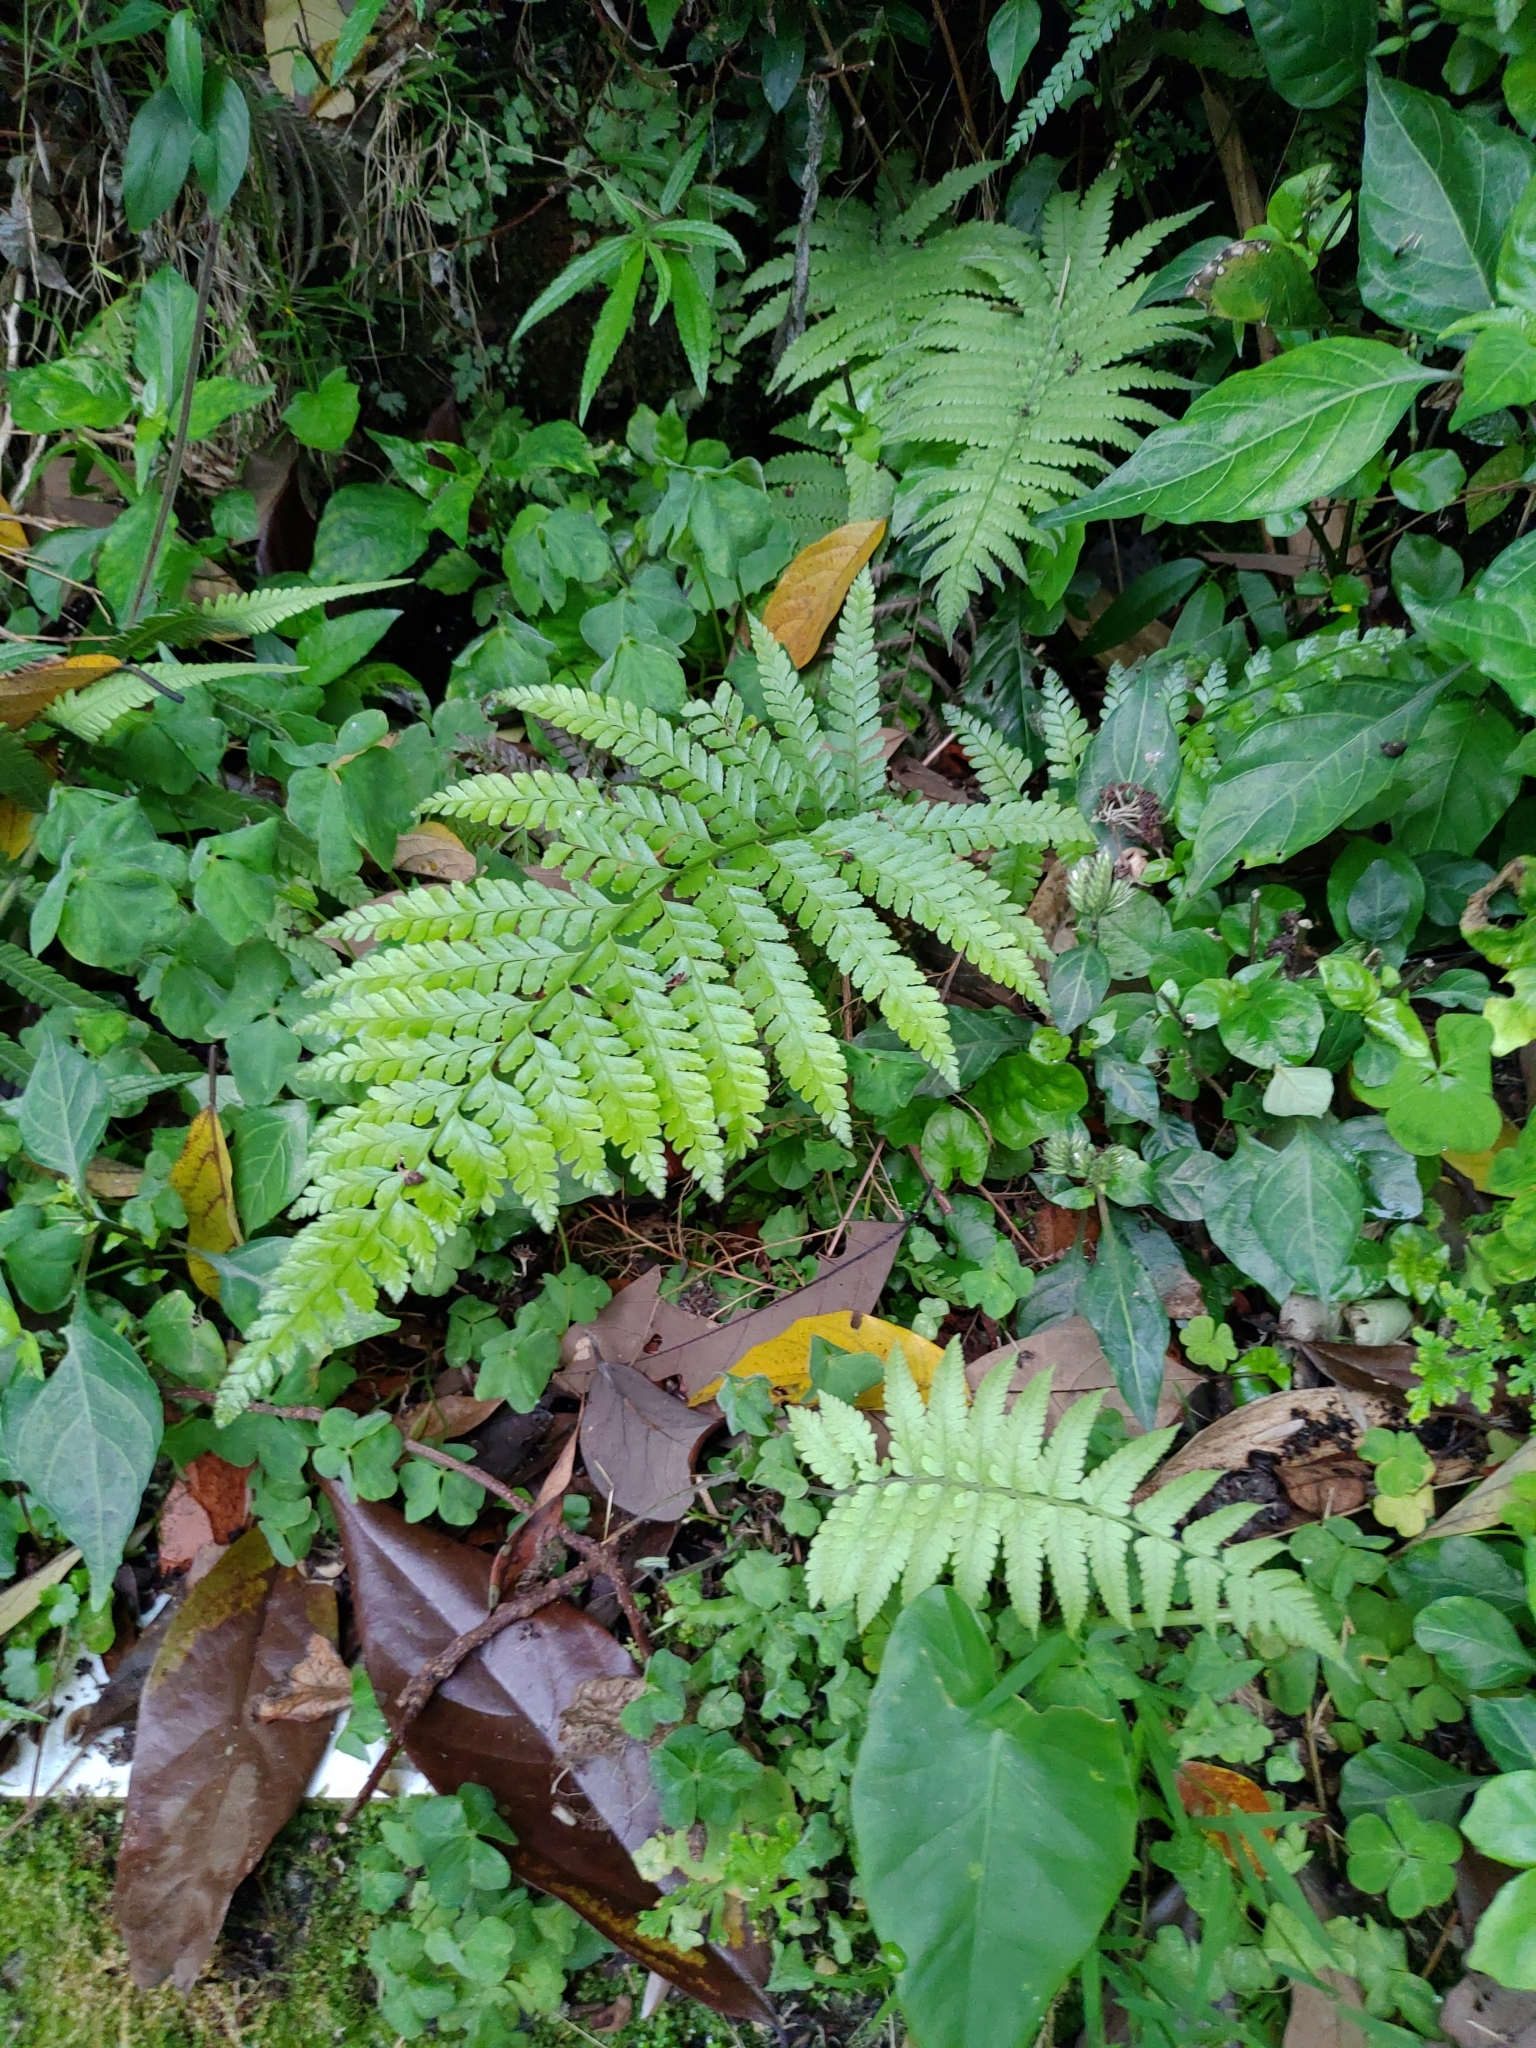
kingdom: Plantae
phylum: Tracheophyta
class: Polypodiopsida
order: Polypodiales
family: Dennstaedtiaceae
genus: Microlepia
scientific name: Microlepia strigosa
